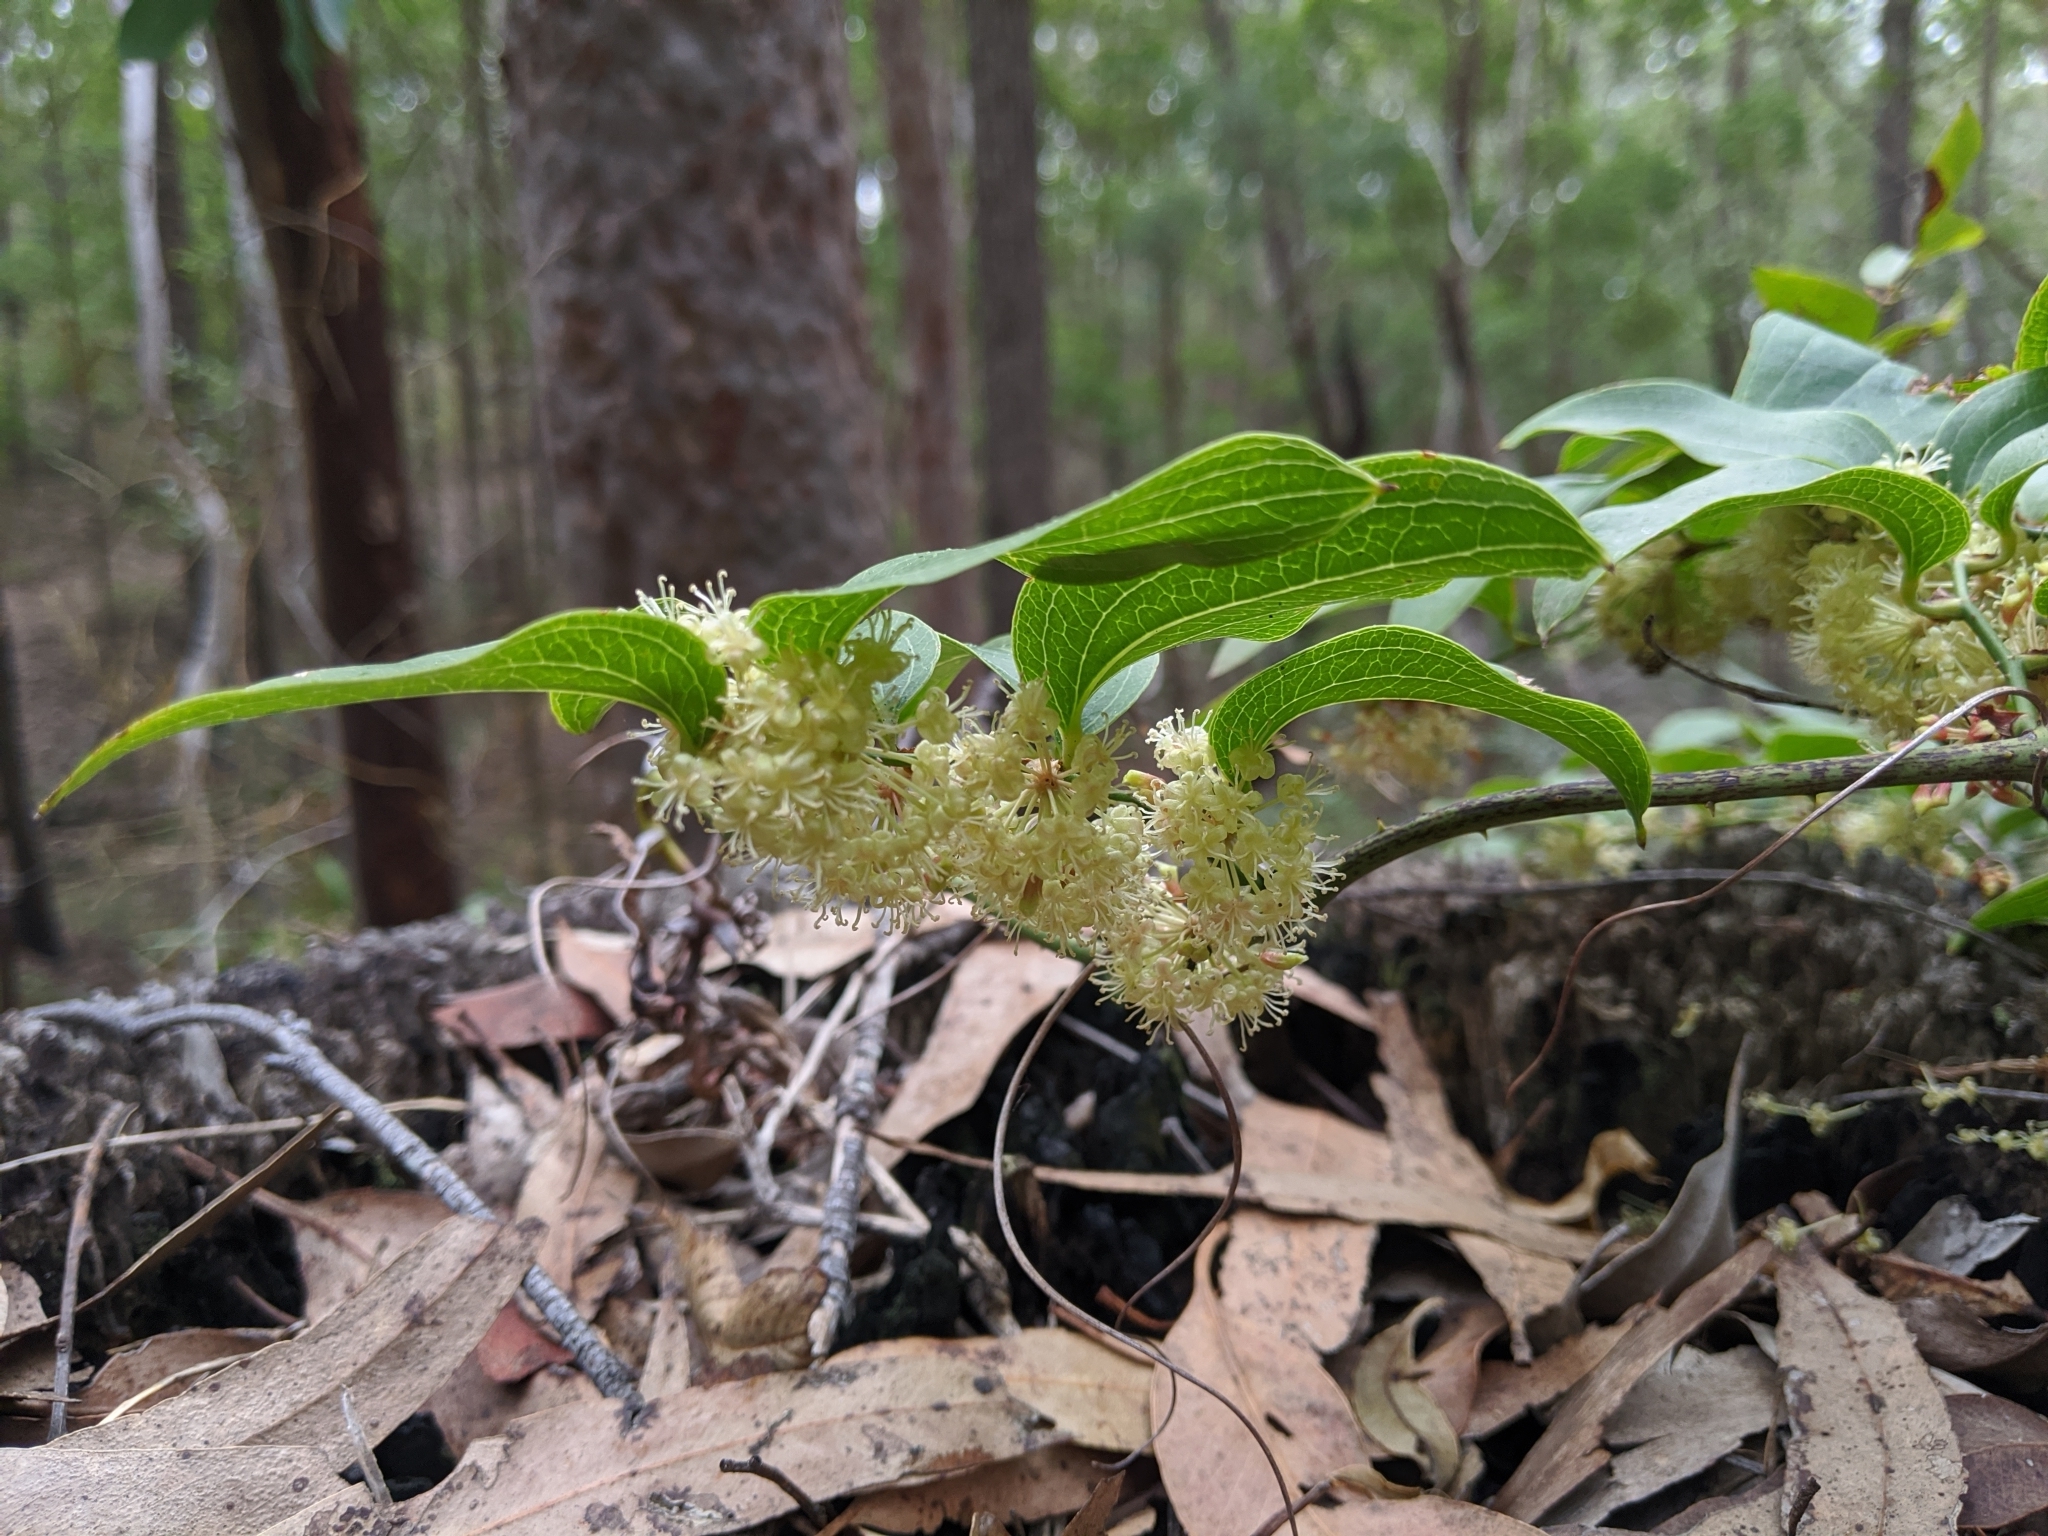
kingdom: Plantae
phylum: Tracheophyta
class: Liliopsida
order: Liliales
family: Smilacaceae
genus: Smilax
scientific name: Smilax australis
